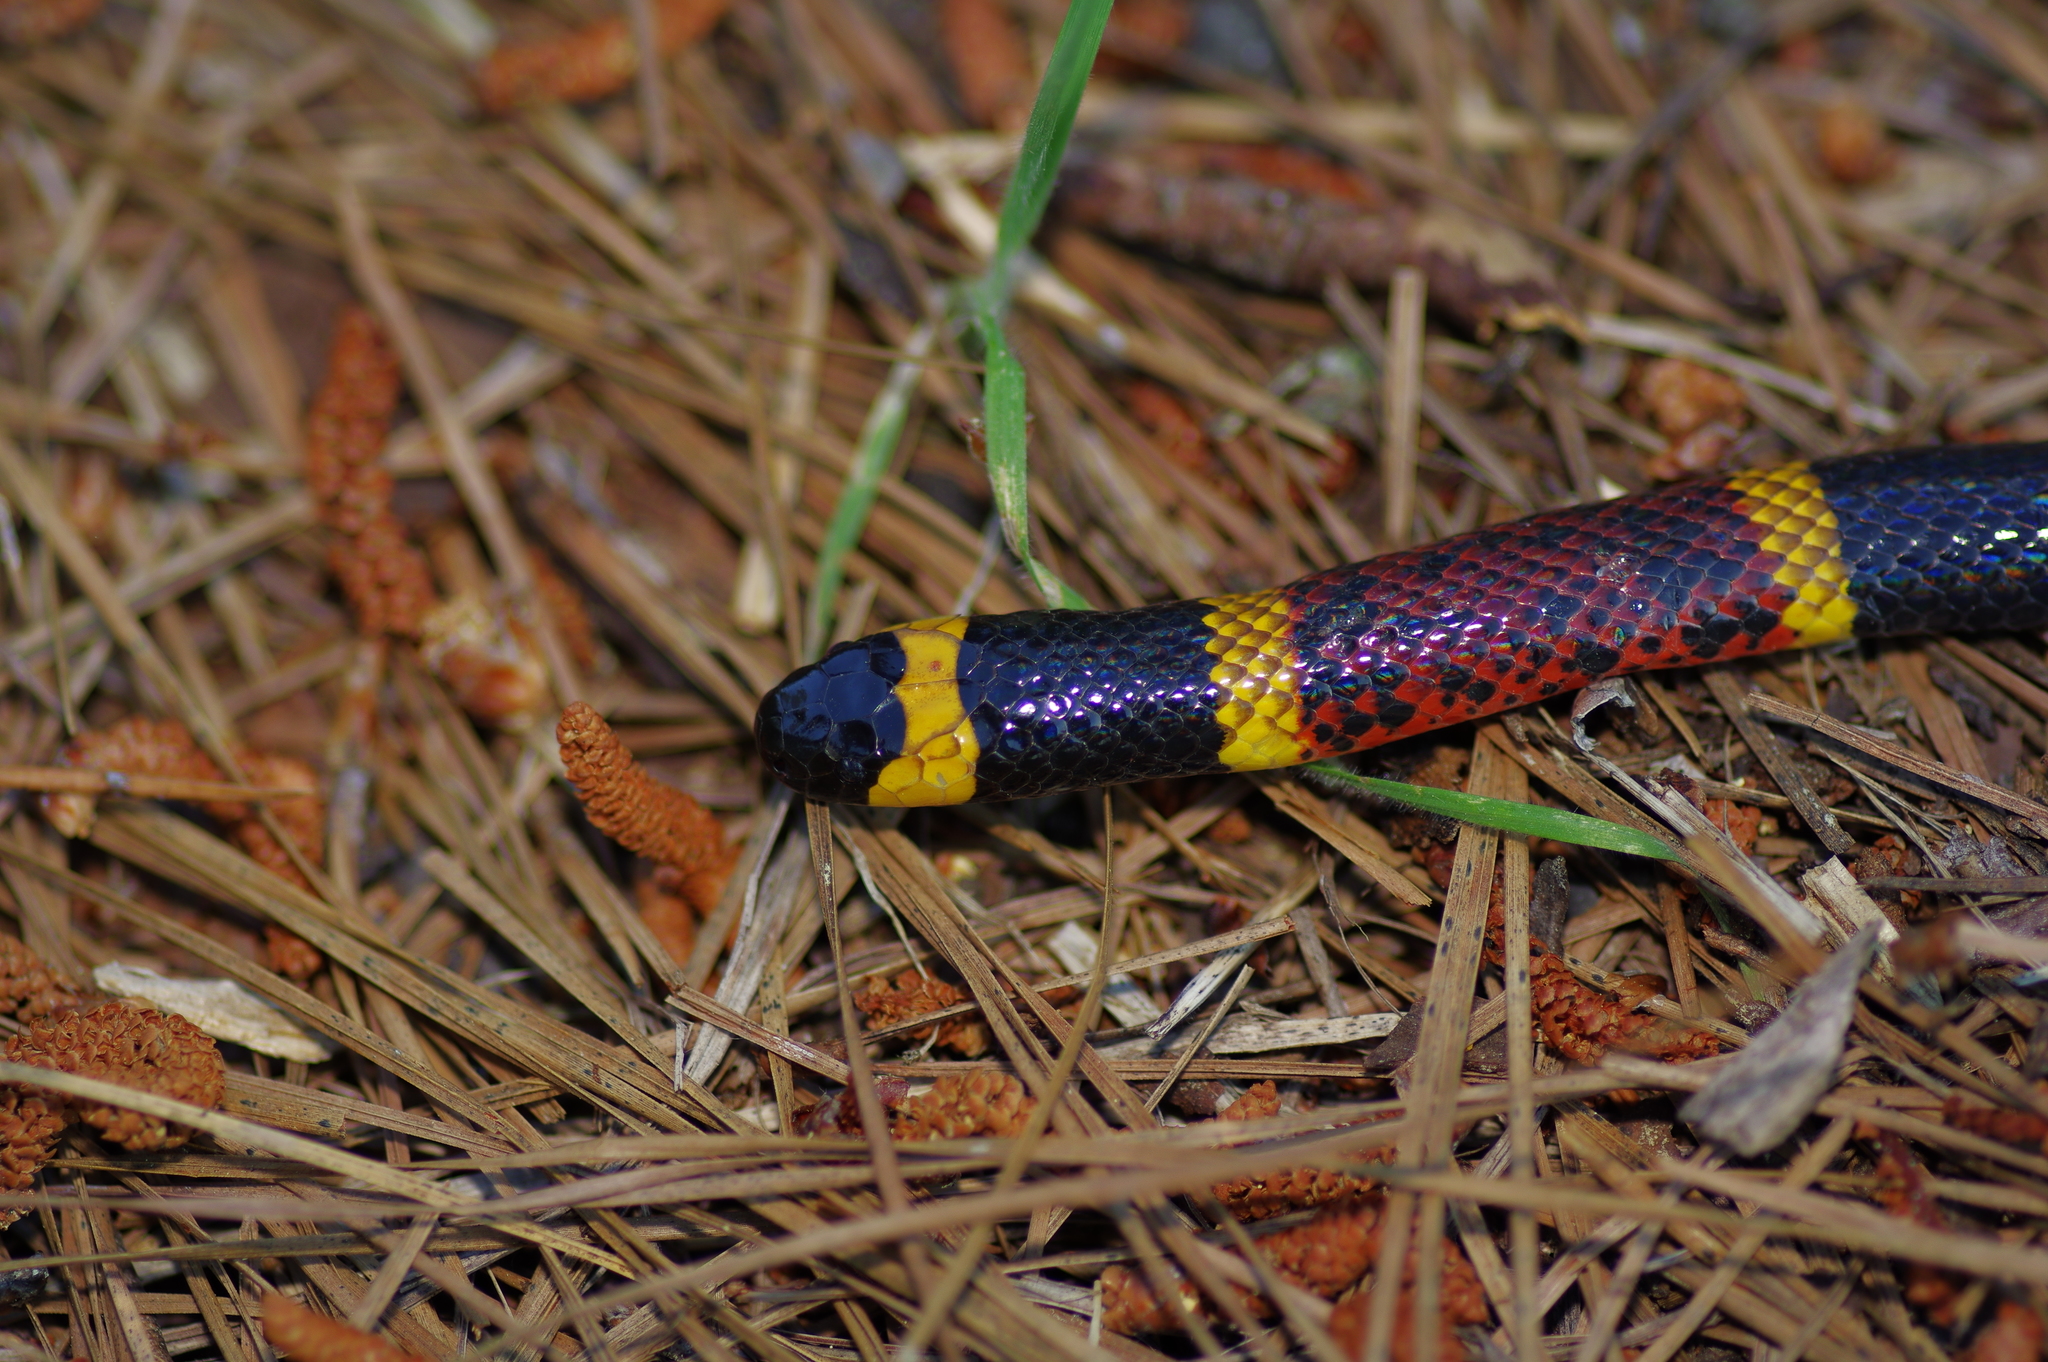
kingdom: Animalia
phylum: Chordata
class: Squamata
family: Elapidae
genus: Micrurus
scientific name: Micrurus tener
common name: Texas coral snake
